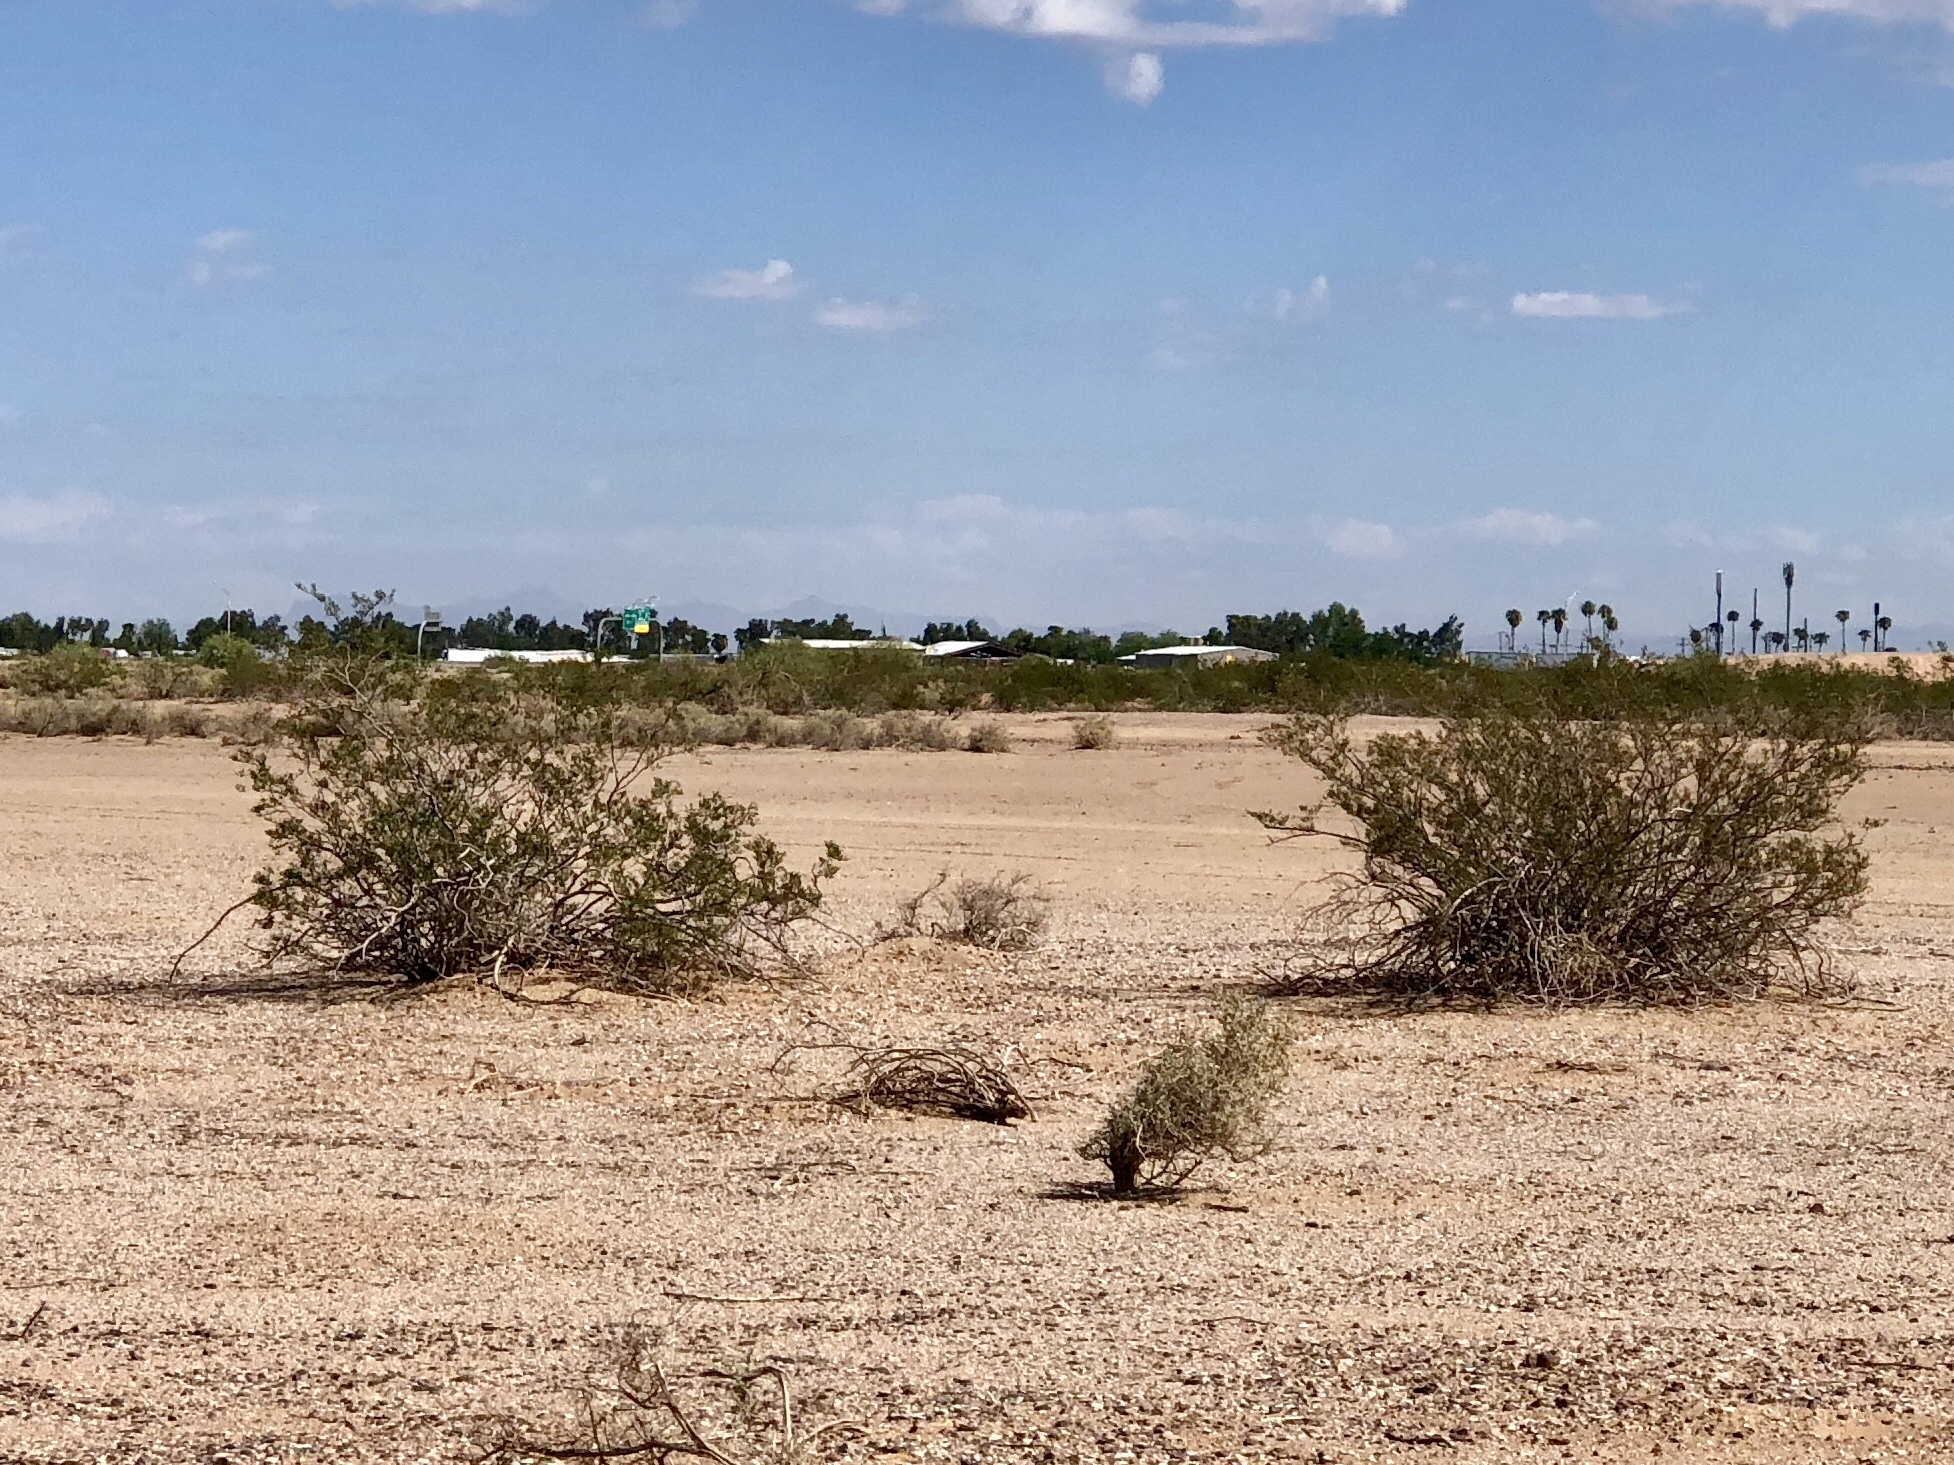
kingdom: Plantae
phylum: Tracheophyta
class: Magnoliopsida
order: Zygophyllales
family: Zygophyllaceae
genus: Larrea
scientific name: Larrea tridentata
